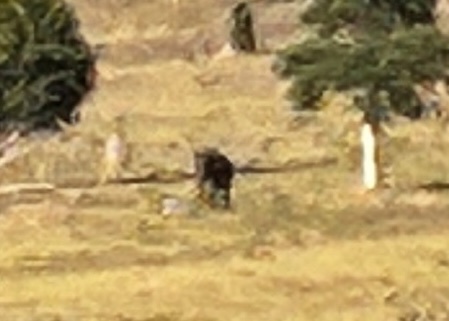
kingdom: Animalia
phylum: Chordata
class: Mammalia
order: Proboscidea
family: Elephantidae
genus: Elephas
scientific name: Elephas maximus
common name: Asian elephant
